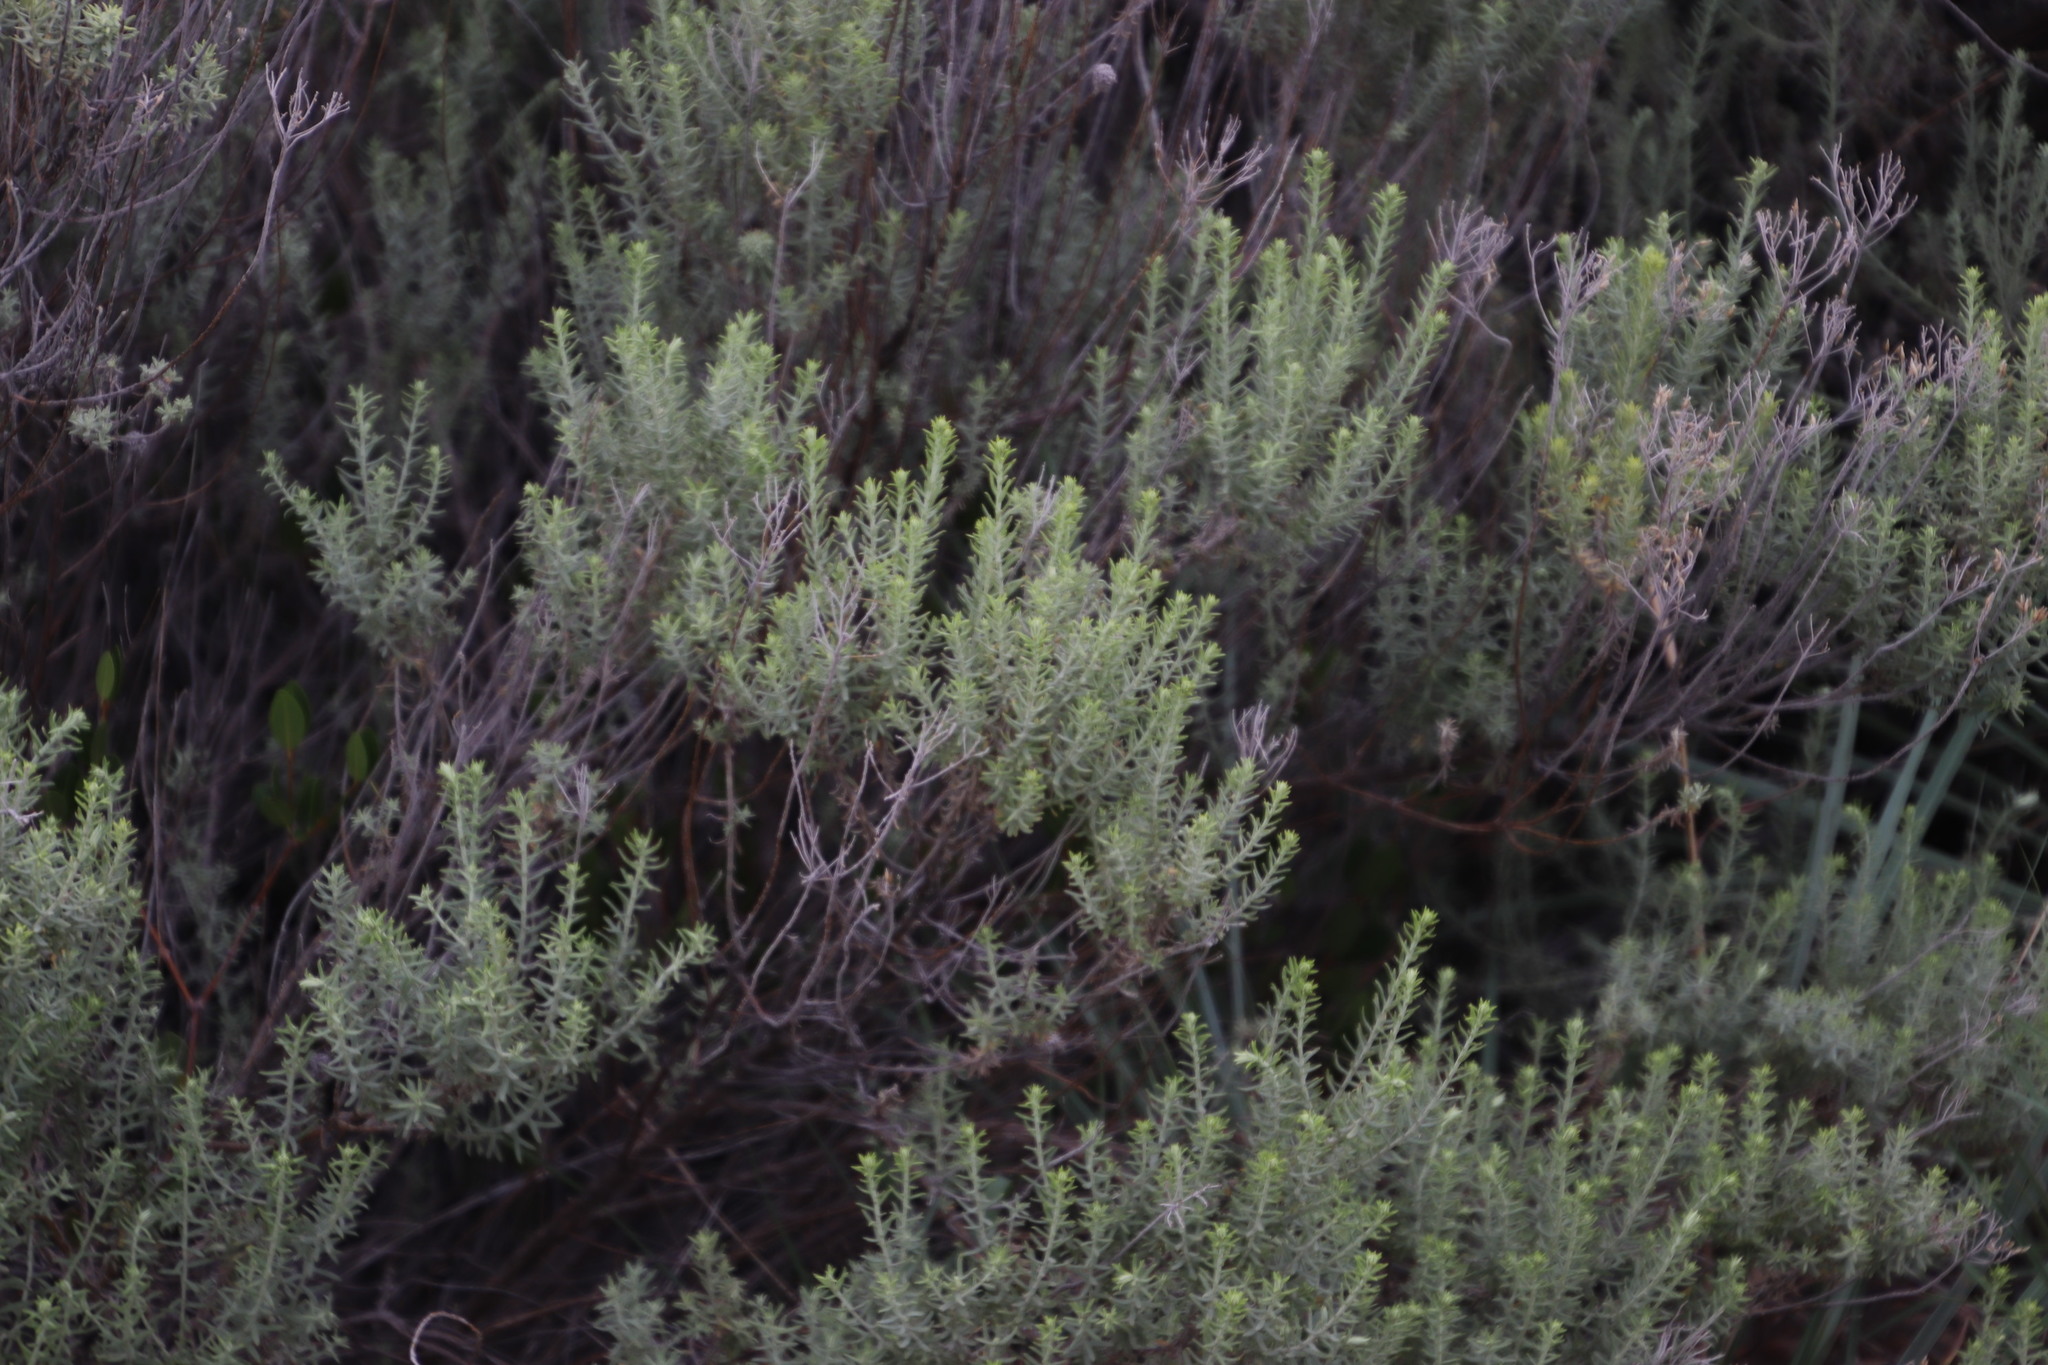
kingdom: Plantae
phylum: Tracheophyta
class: Magnoliopsida
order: Asterales
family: Asteraceae
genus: Helichrysum
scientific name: Helichrysum kraussii
